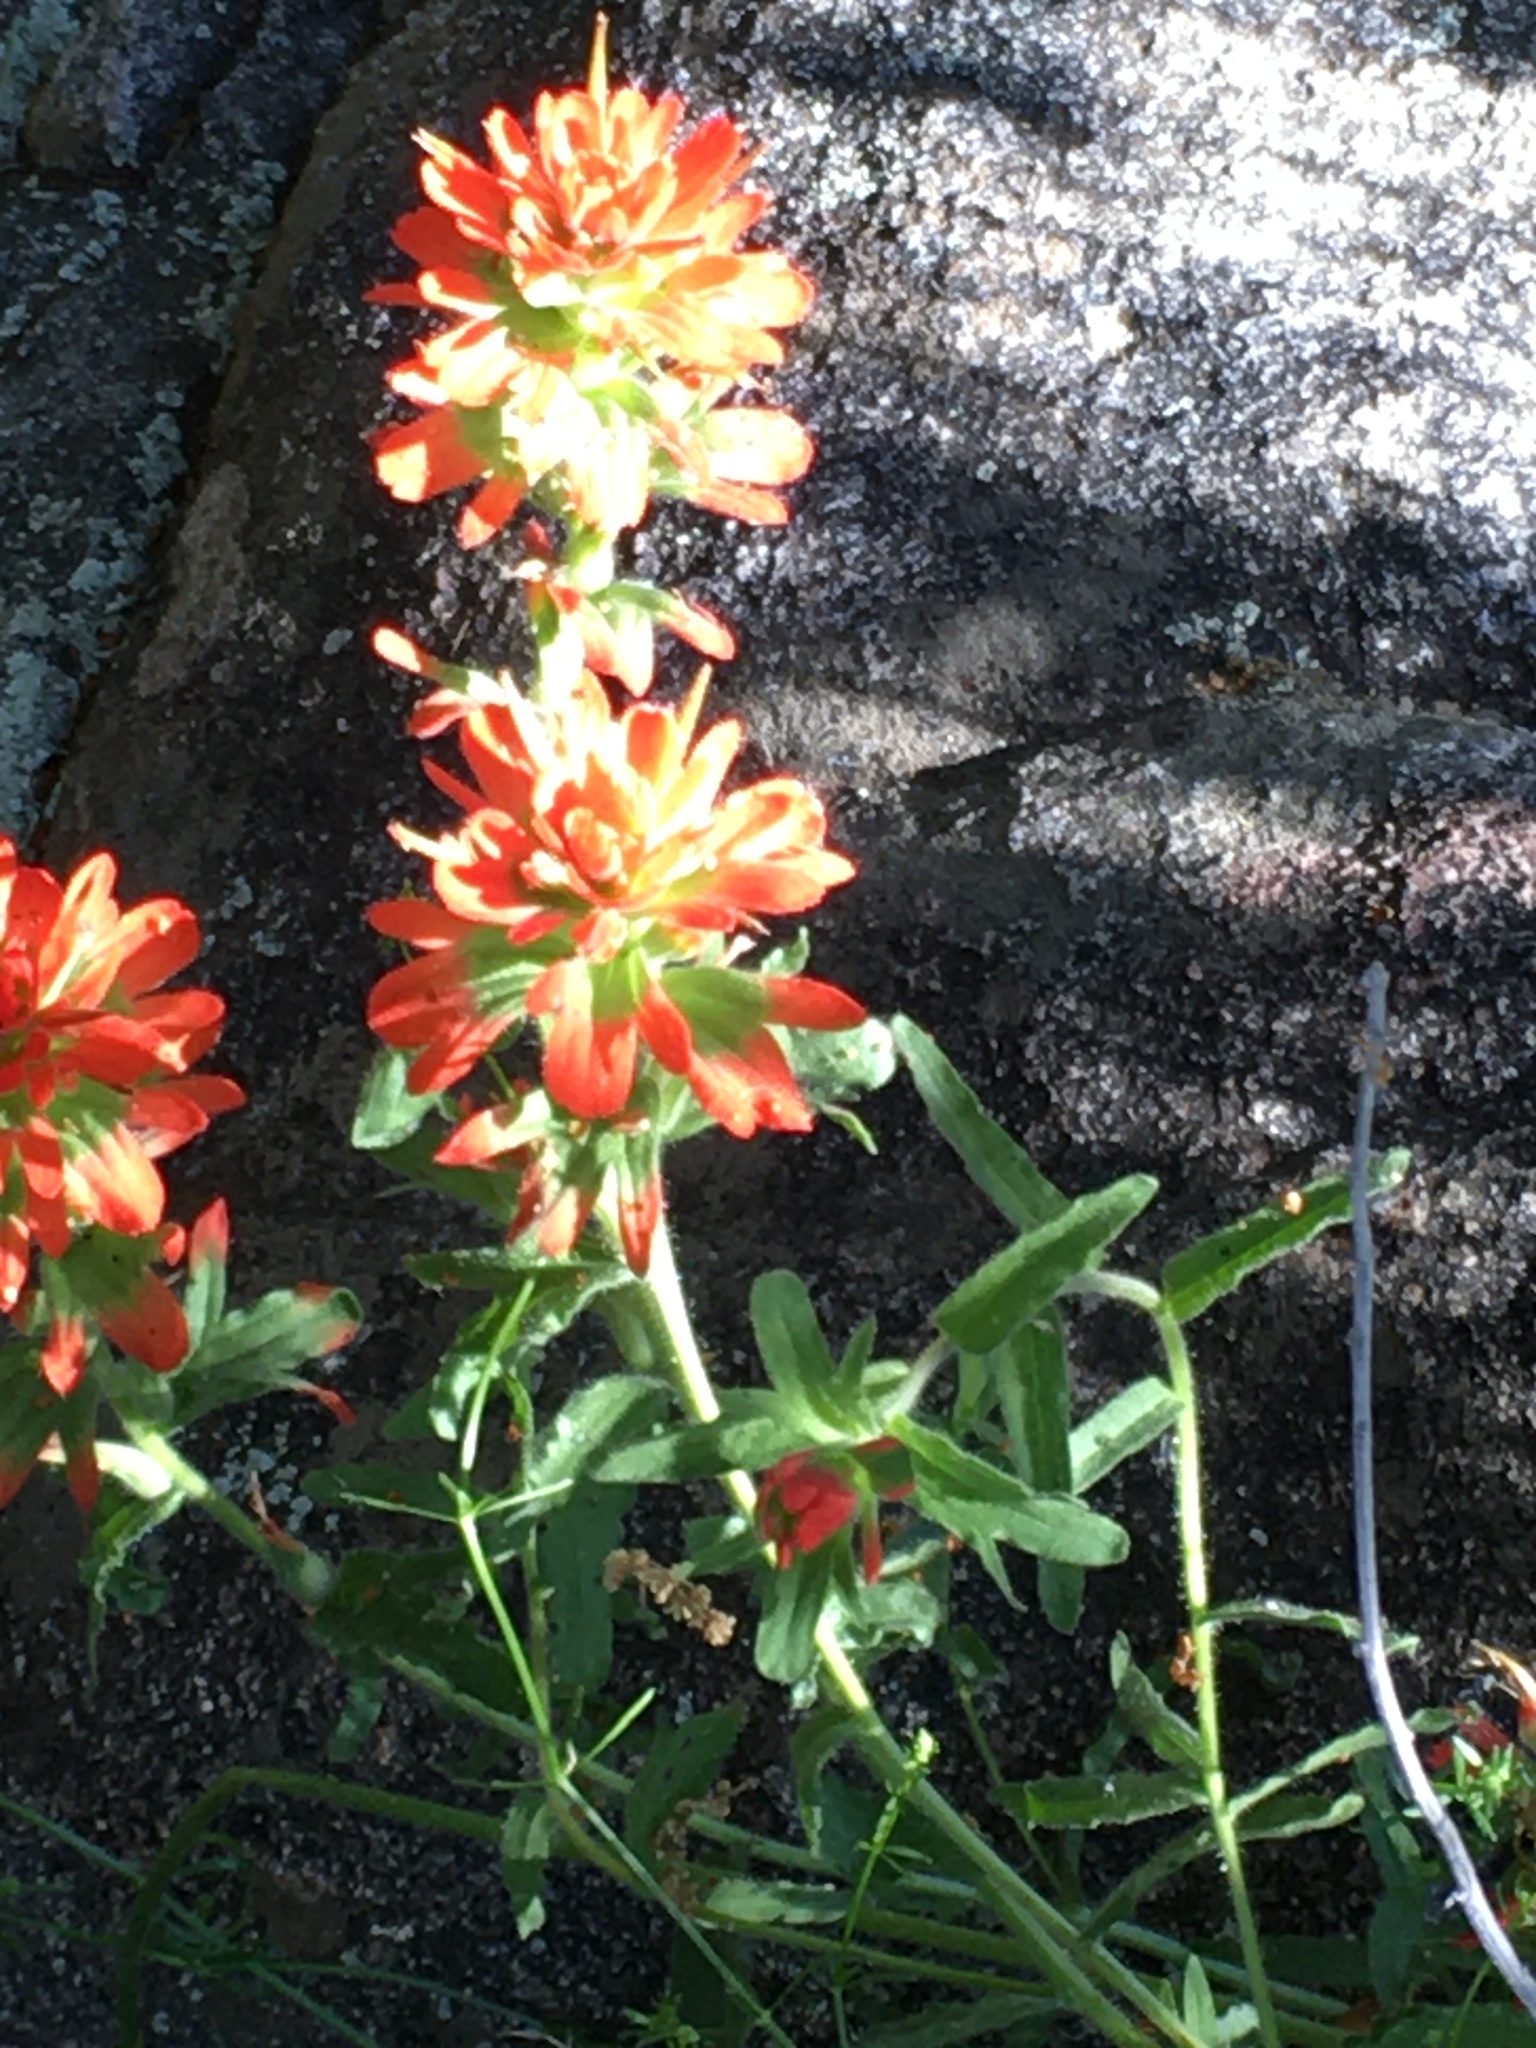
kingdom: Plantae
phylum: Tracheophyta
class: Magnoliopsida
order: Lamiales
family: Orobanchaceae
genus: Castilleja
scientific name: Castilleja martini
